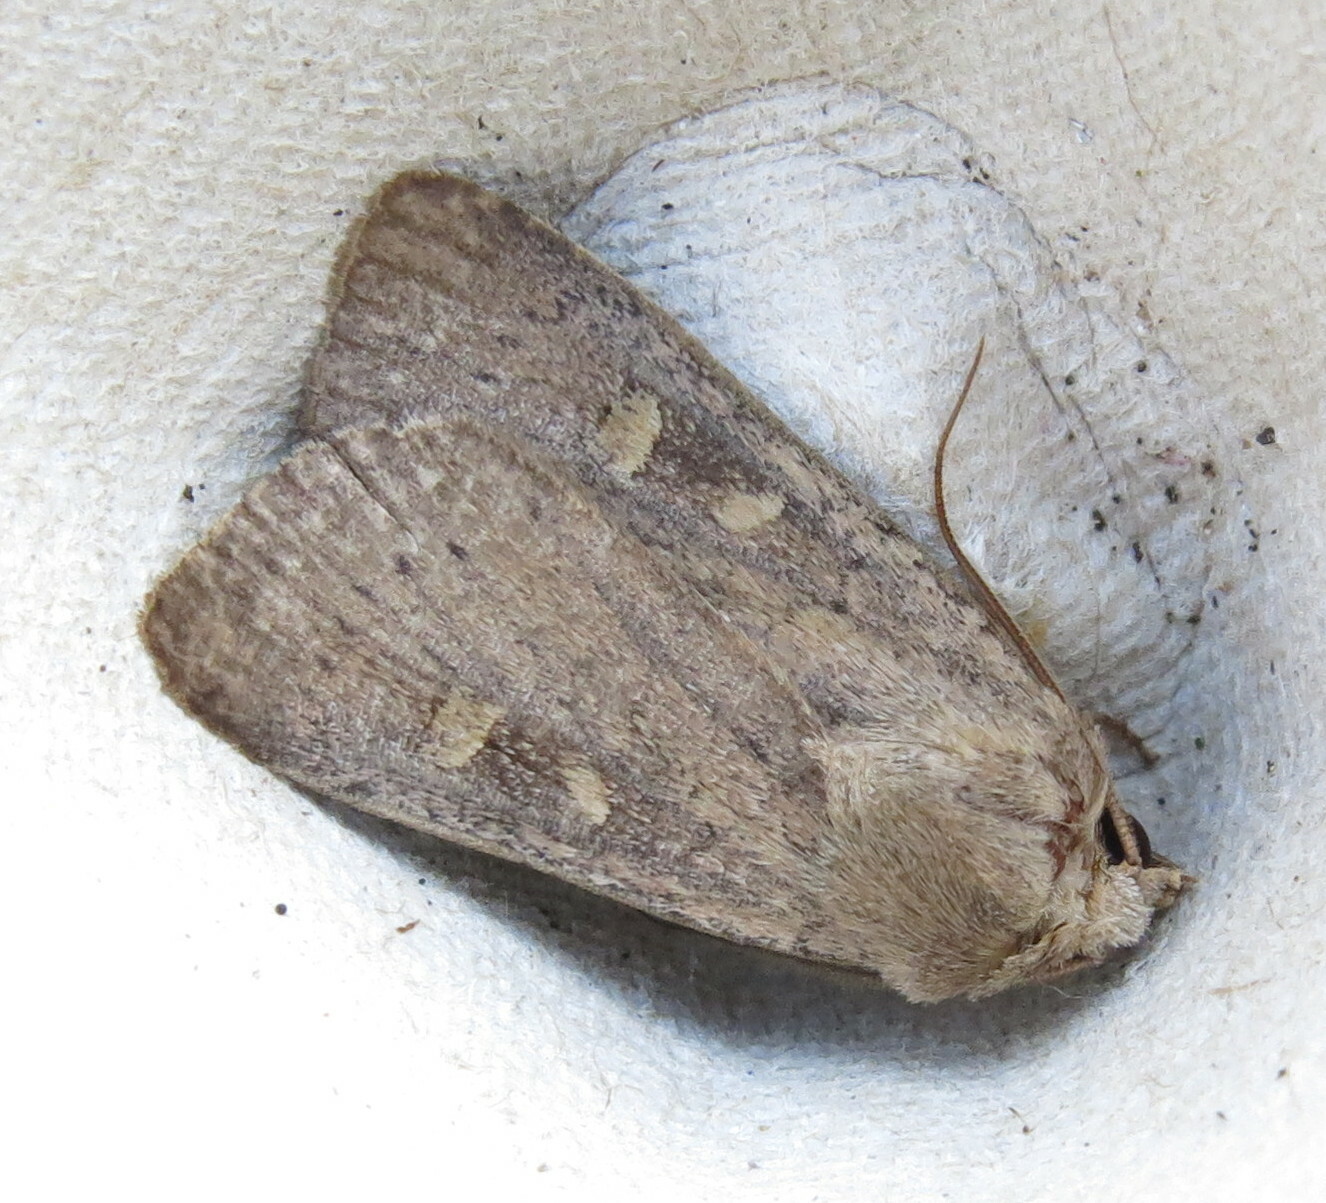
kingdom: Animalia
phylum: Arthropoda
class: Insecta
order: Lepidoptera
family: Noctuidae
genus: Xestia
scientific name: Xestia xanthographa
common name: Square-spot rustic
